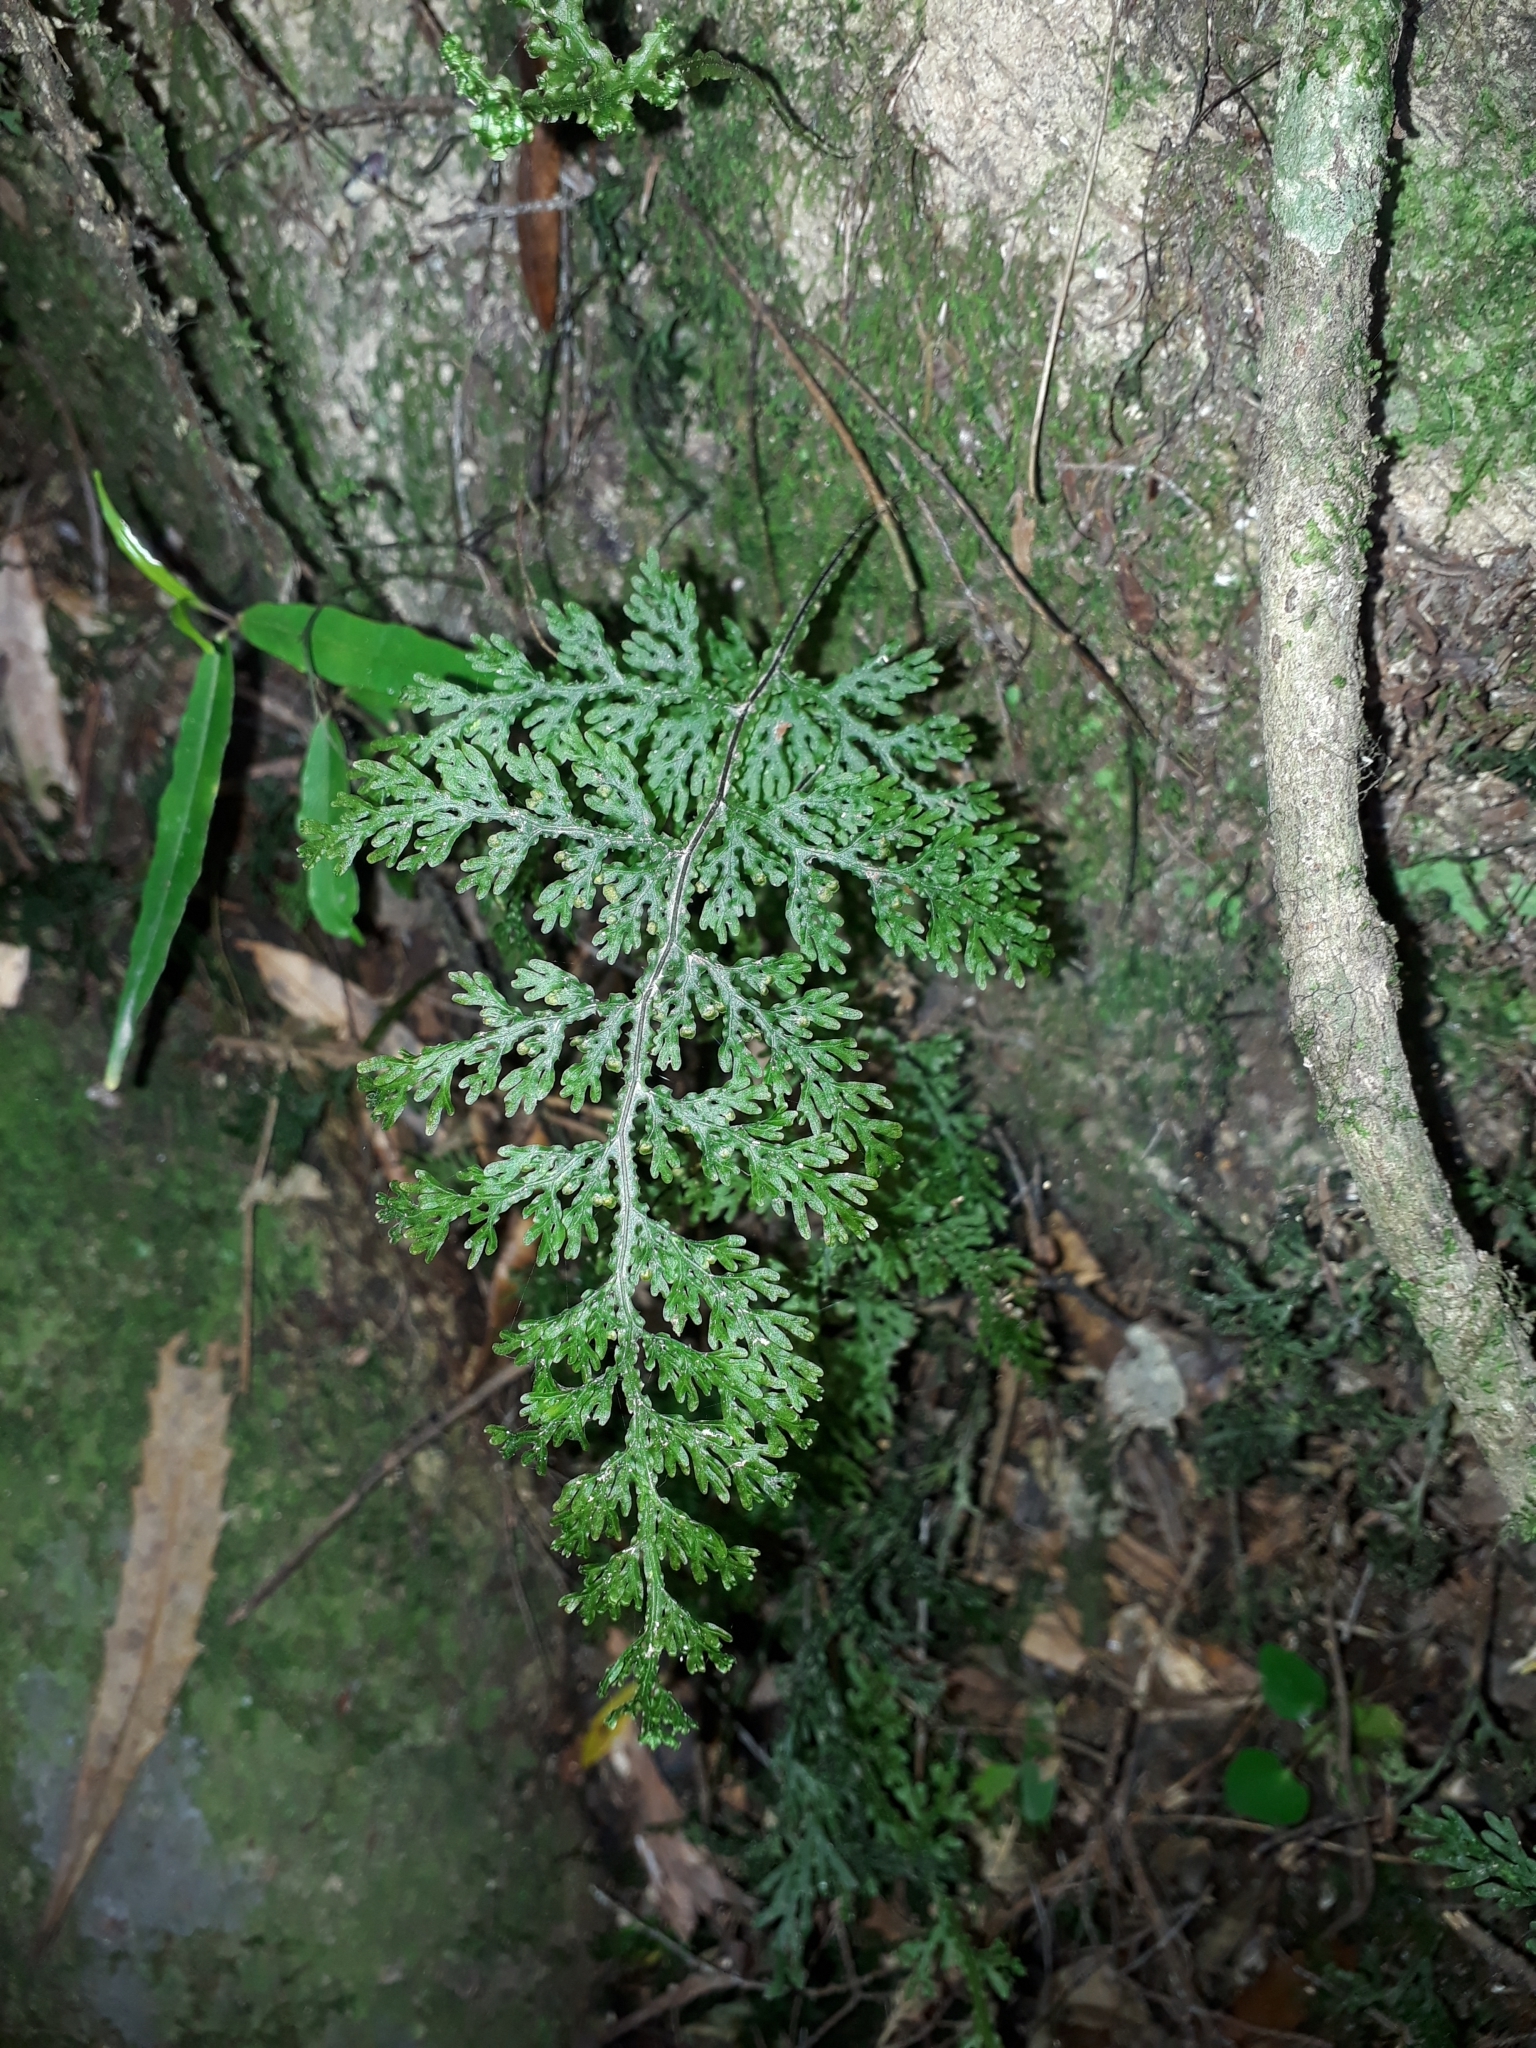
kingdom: Plantae
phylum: Tracheophyta
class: Polypodiopsida
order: Hymenophyllales
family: Hymenophyllaceae
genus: Hymenophyllum
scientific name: Hymenophyllum flexuosum
